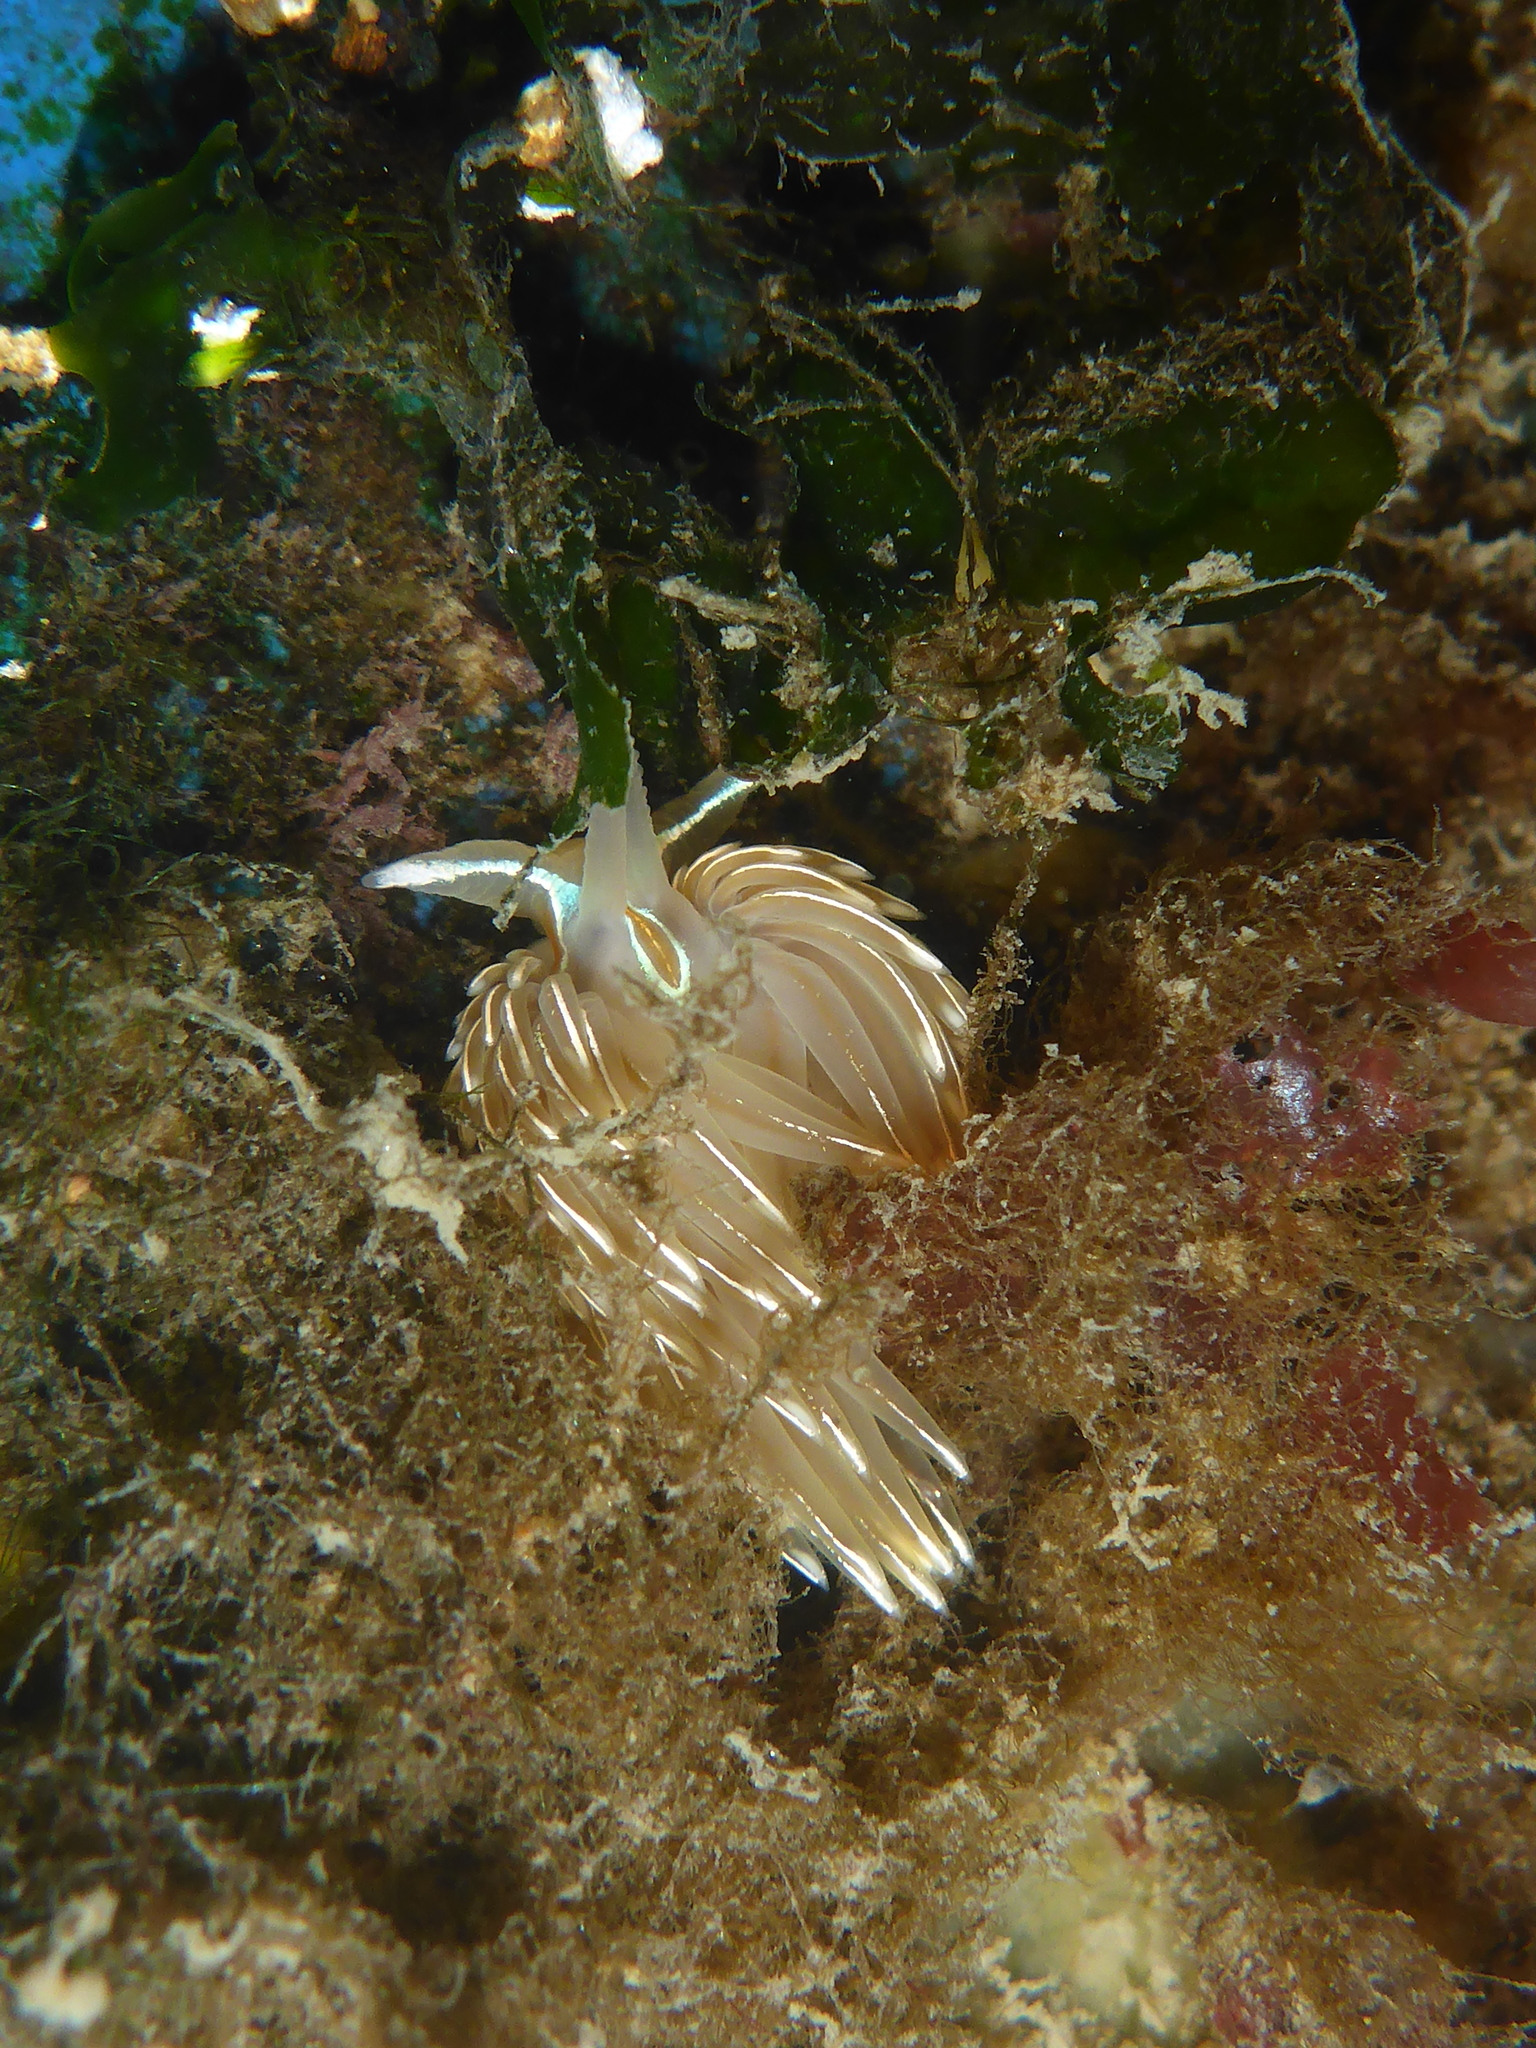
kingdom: Animalia
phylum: Mollusca
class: Gastropoda
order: Nudibranchia
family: Myrrhinidae
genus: Hermissenda
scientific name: Hermissenda crassicornis
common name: Hermissenda
